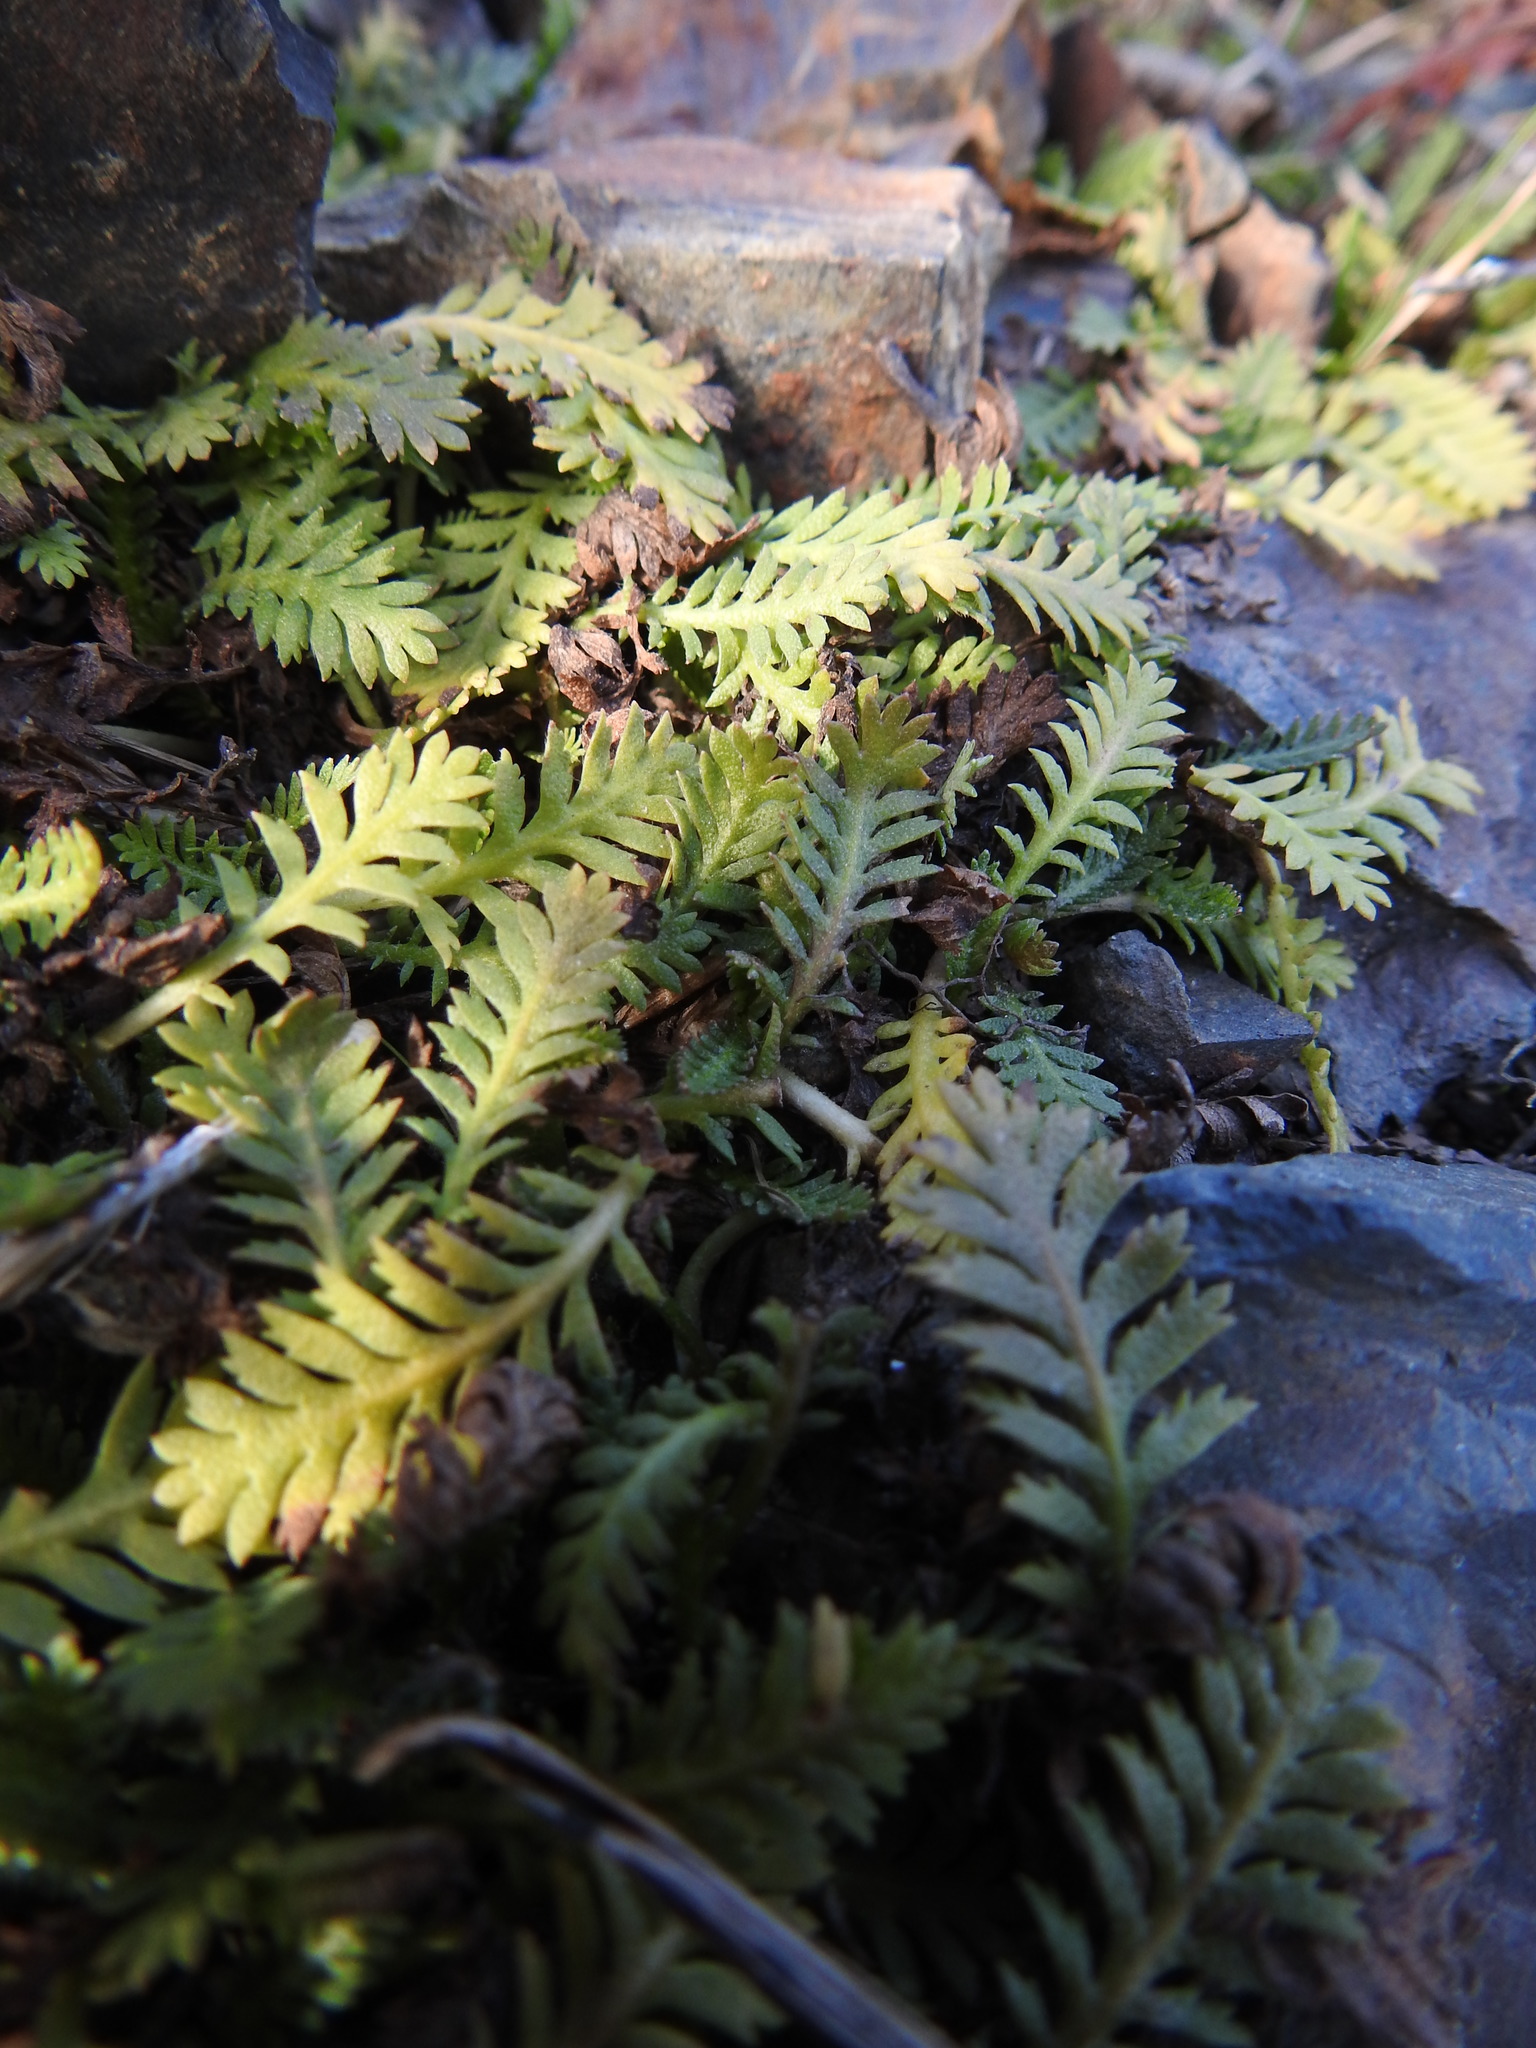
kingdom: Plantae
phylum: Tracheophyta
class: Magnoliopsida
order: Asterales
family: Asteraceae
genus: Leptinella
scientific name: Leptinella scariosa
